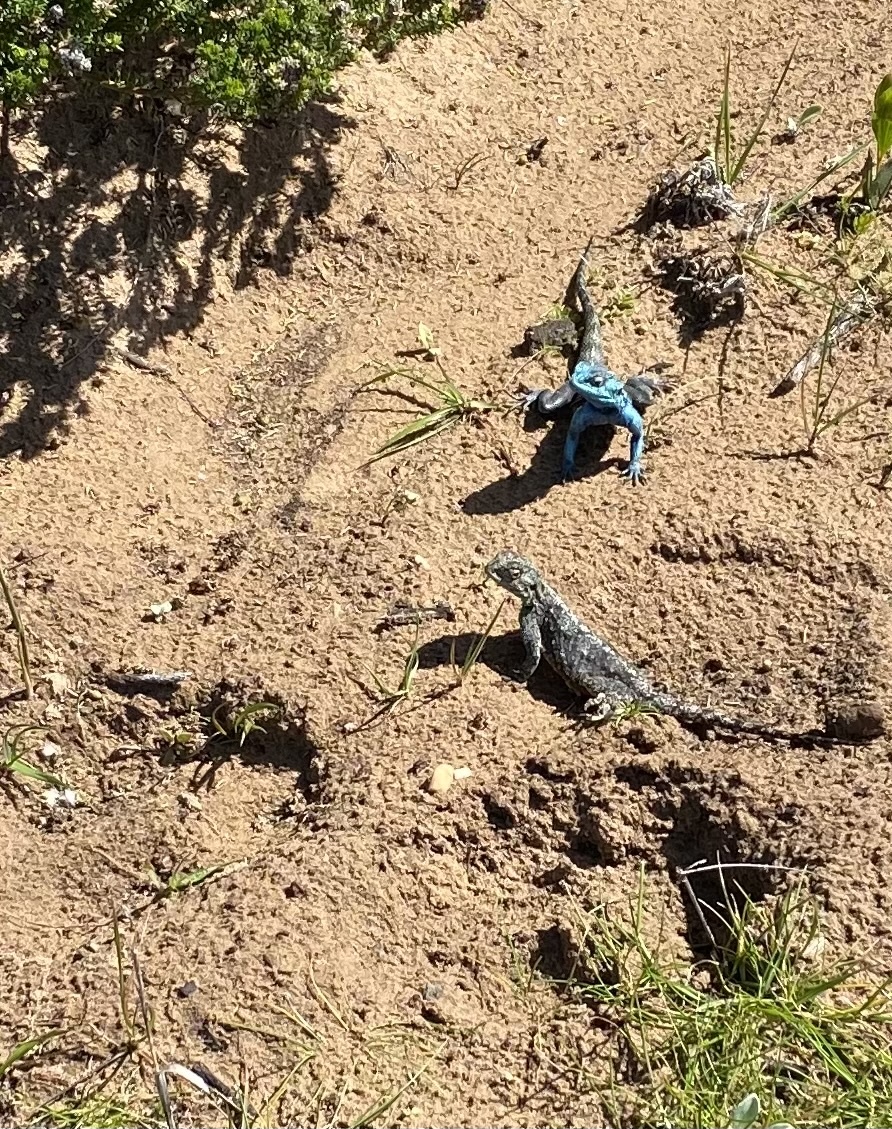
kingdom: Animalia
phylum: Chordata
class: Squamata
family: Agamidae
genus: Agama
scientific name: Agama atra
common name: Southern african rock agama
